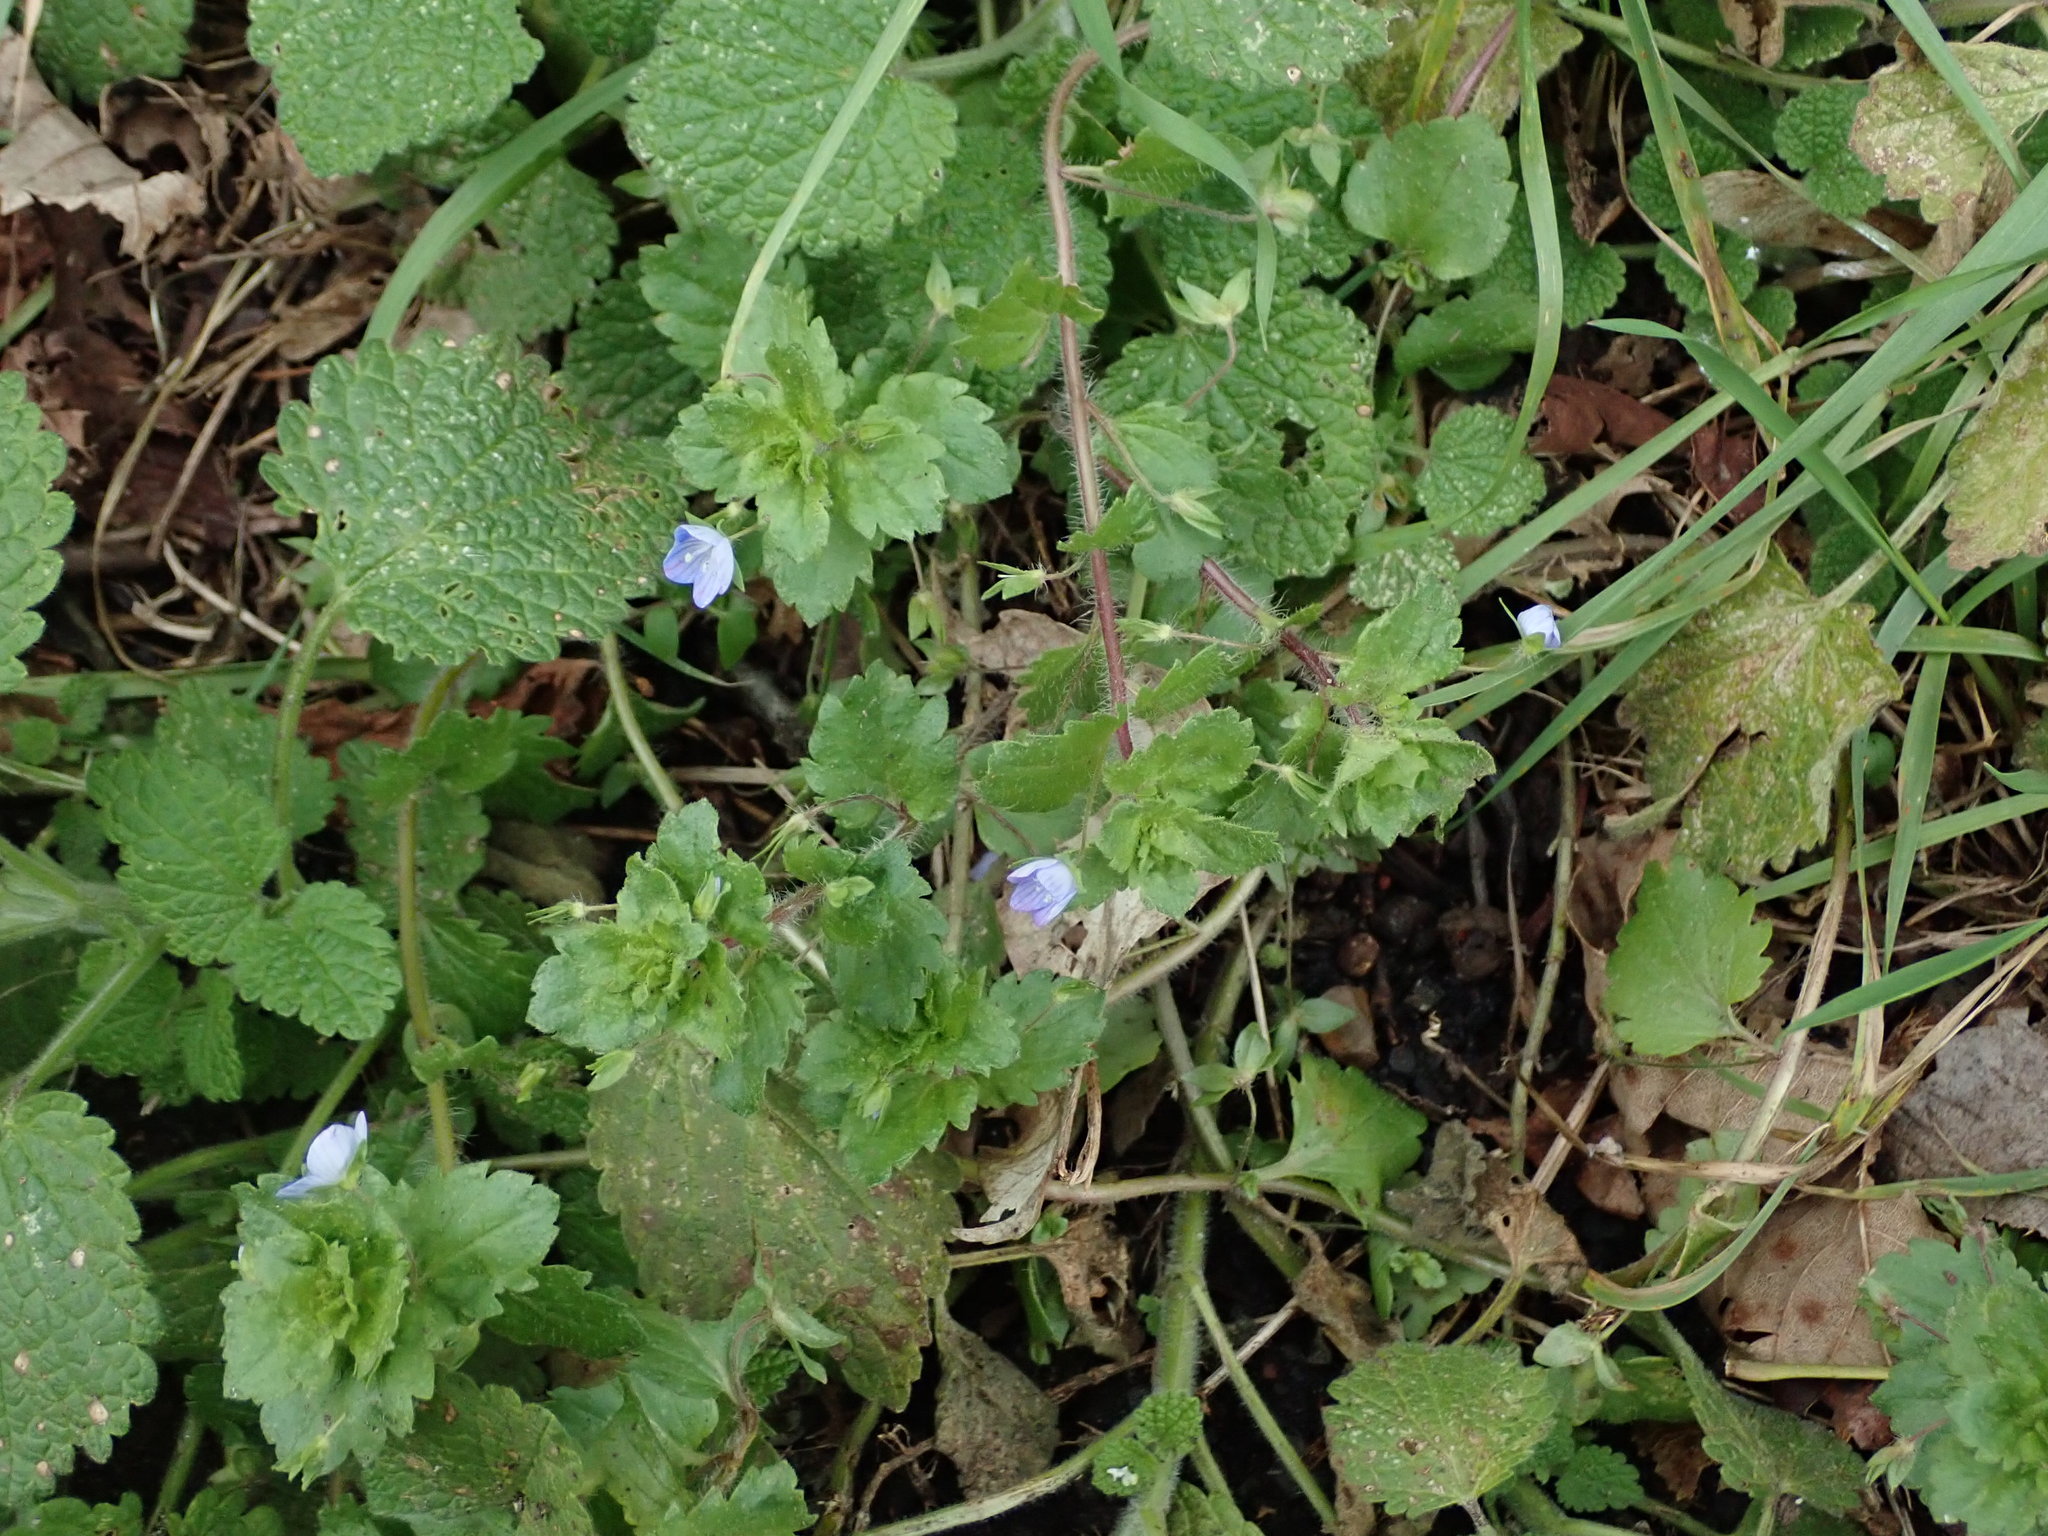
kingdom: Plantae
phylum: Tracheophyta
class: Magnoliopsida
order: Lamiales
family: Plantaginaceae
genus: Veronica
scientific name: Veronica persica
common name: Common field-speedwell
